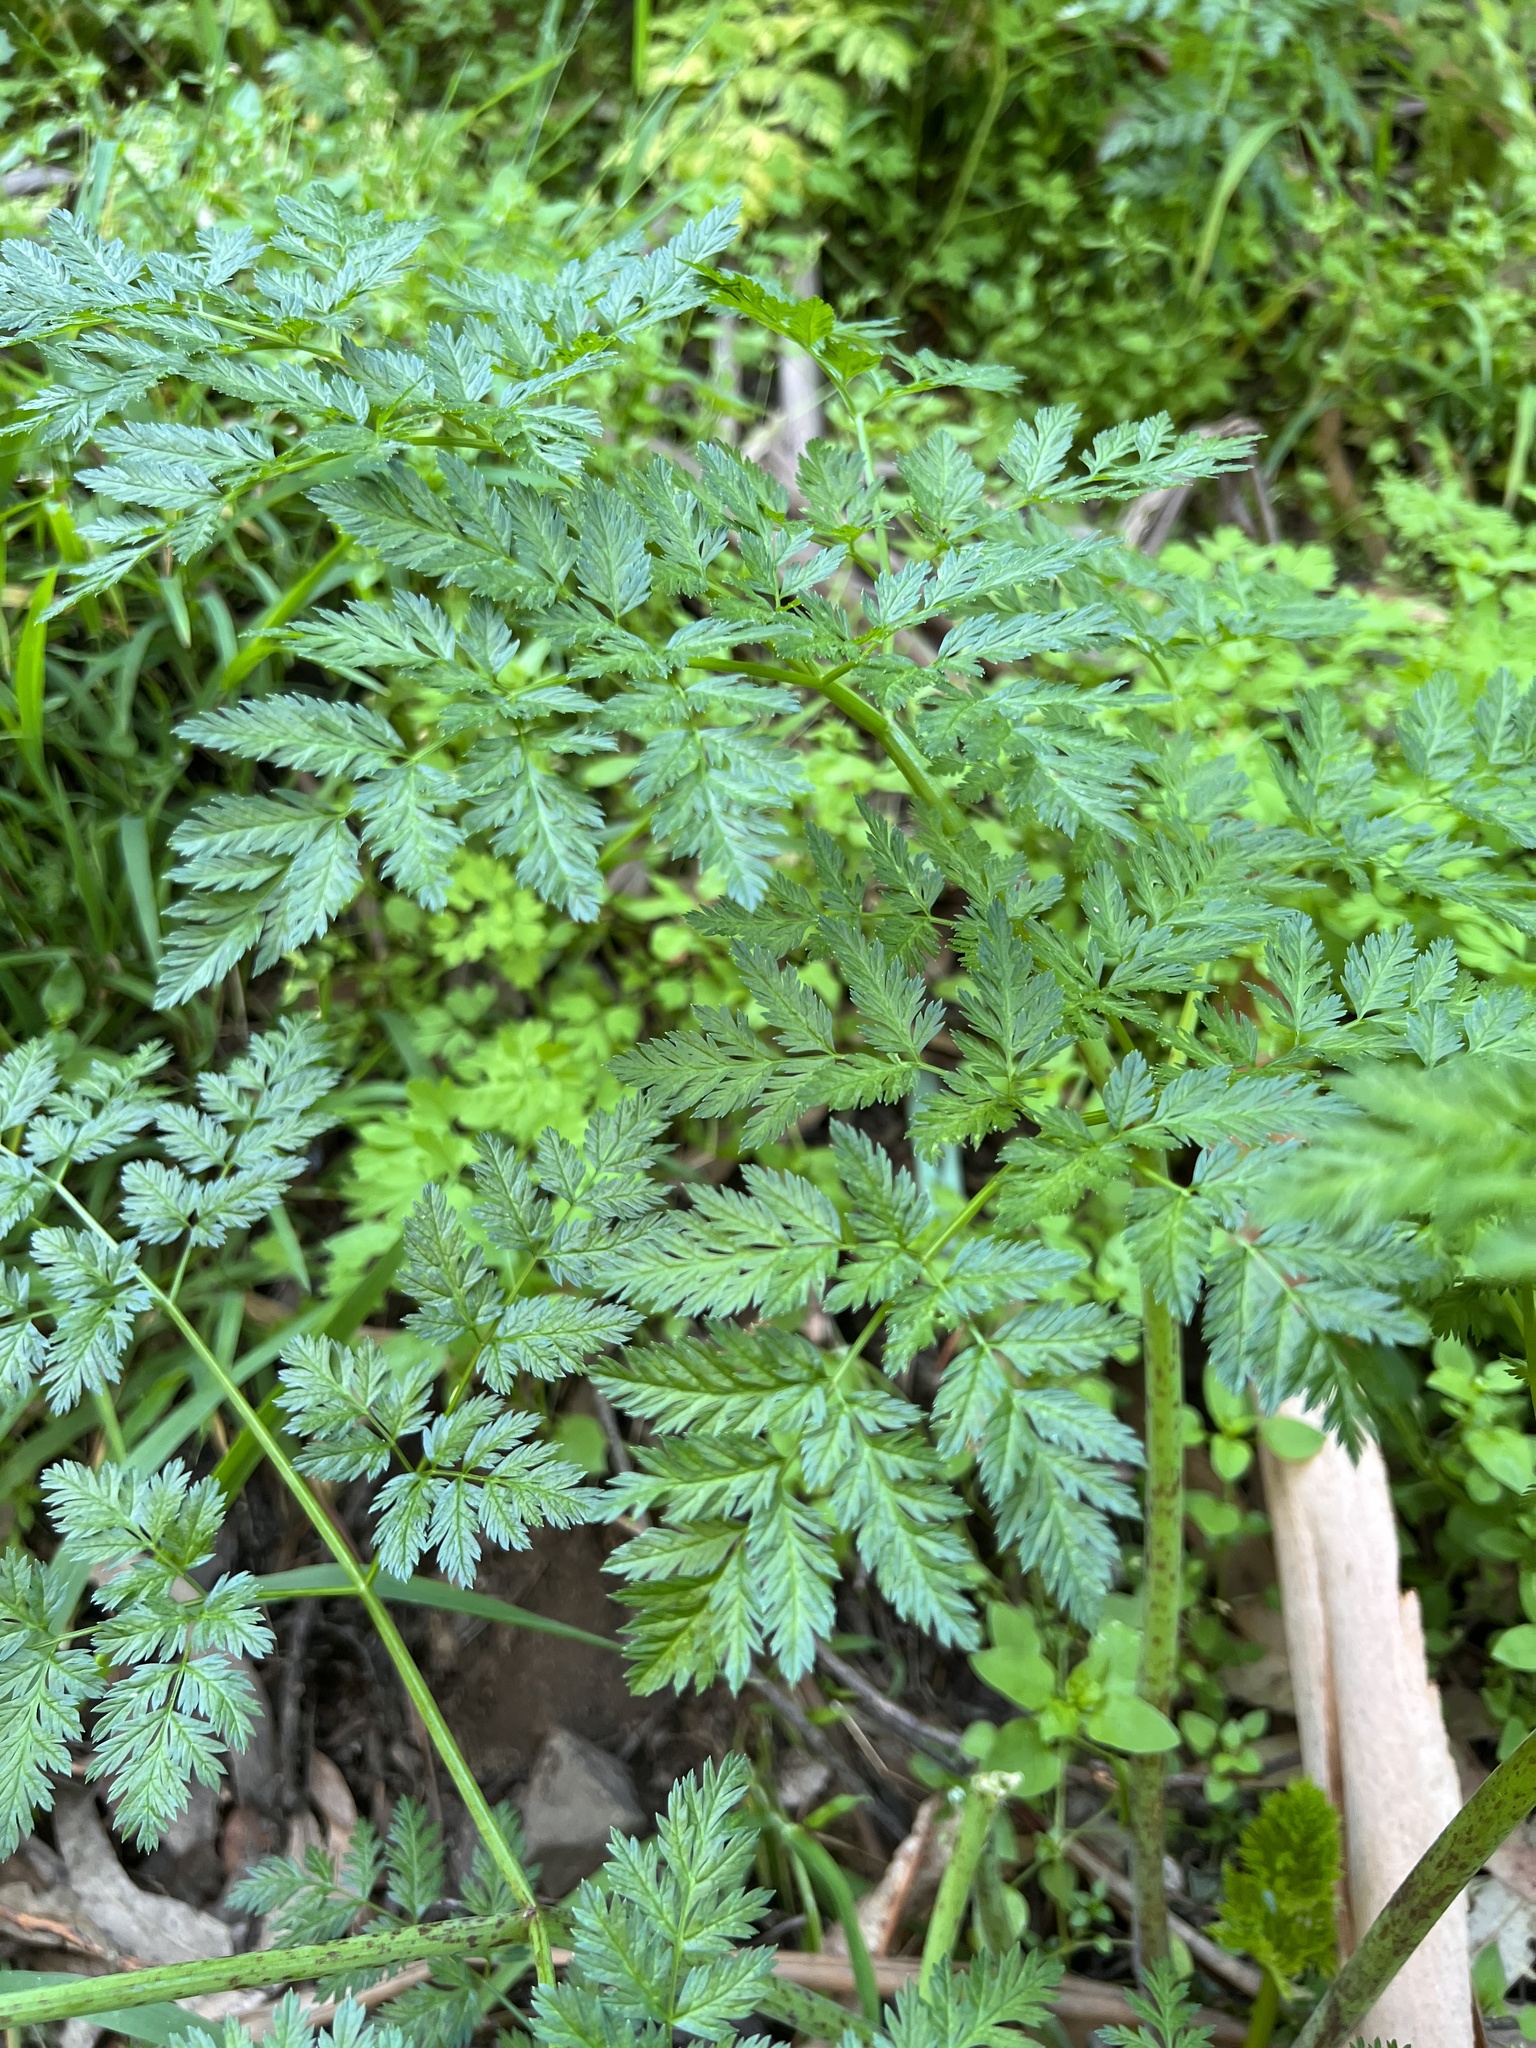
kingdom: Plantae
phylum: Tracheophyta
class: Magnoliopsida
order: Apiales
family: Apiaceae
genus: Conium
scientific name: Conium maculatum
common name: Hemlock
